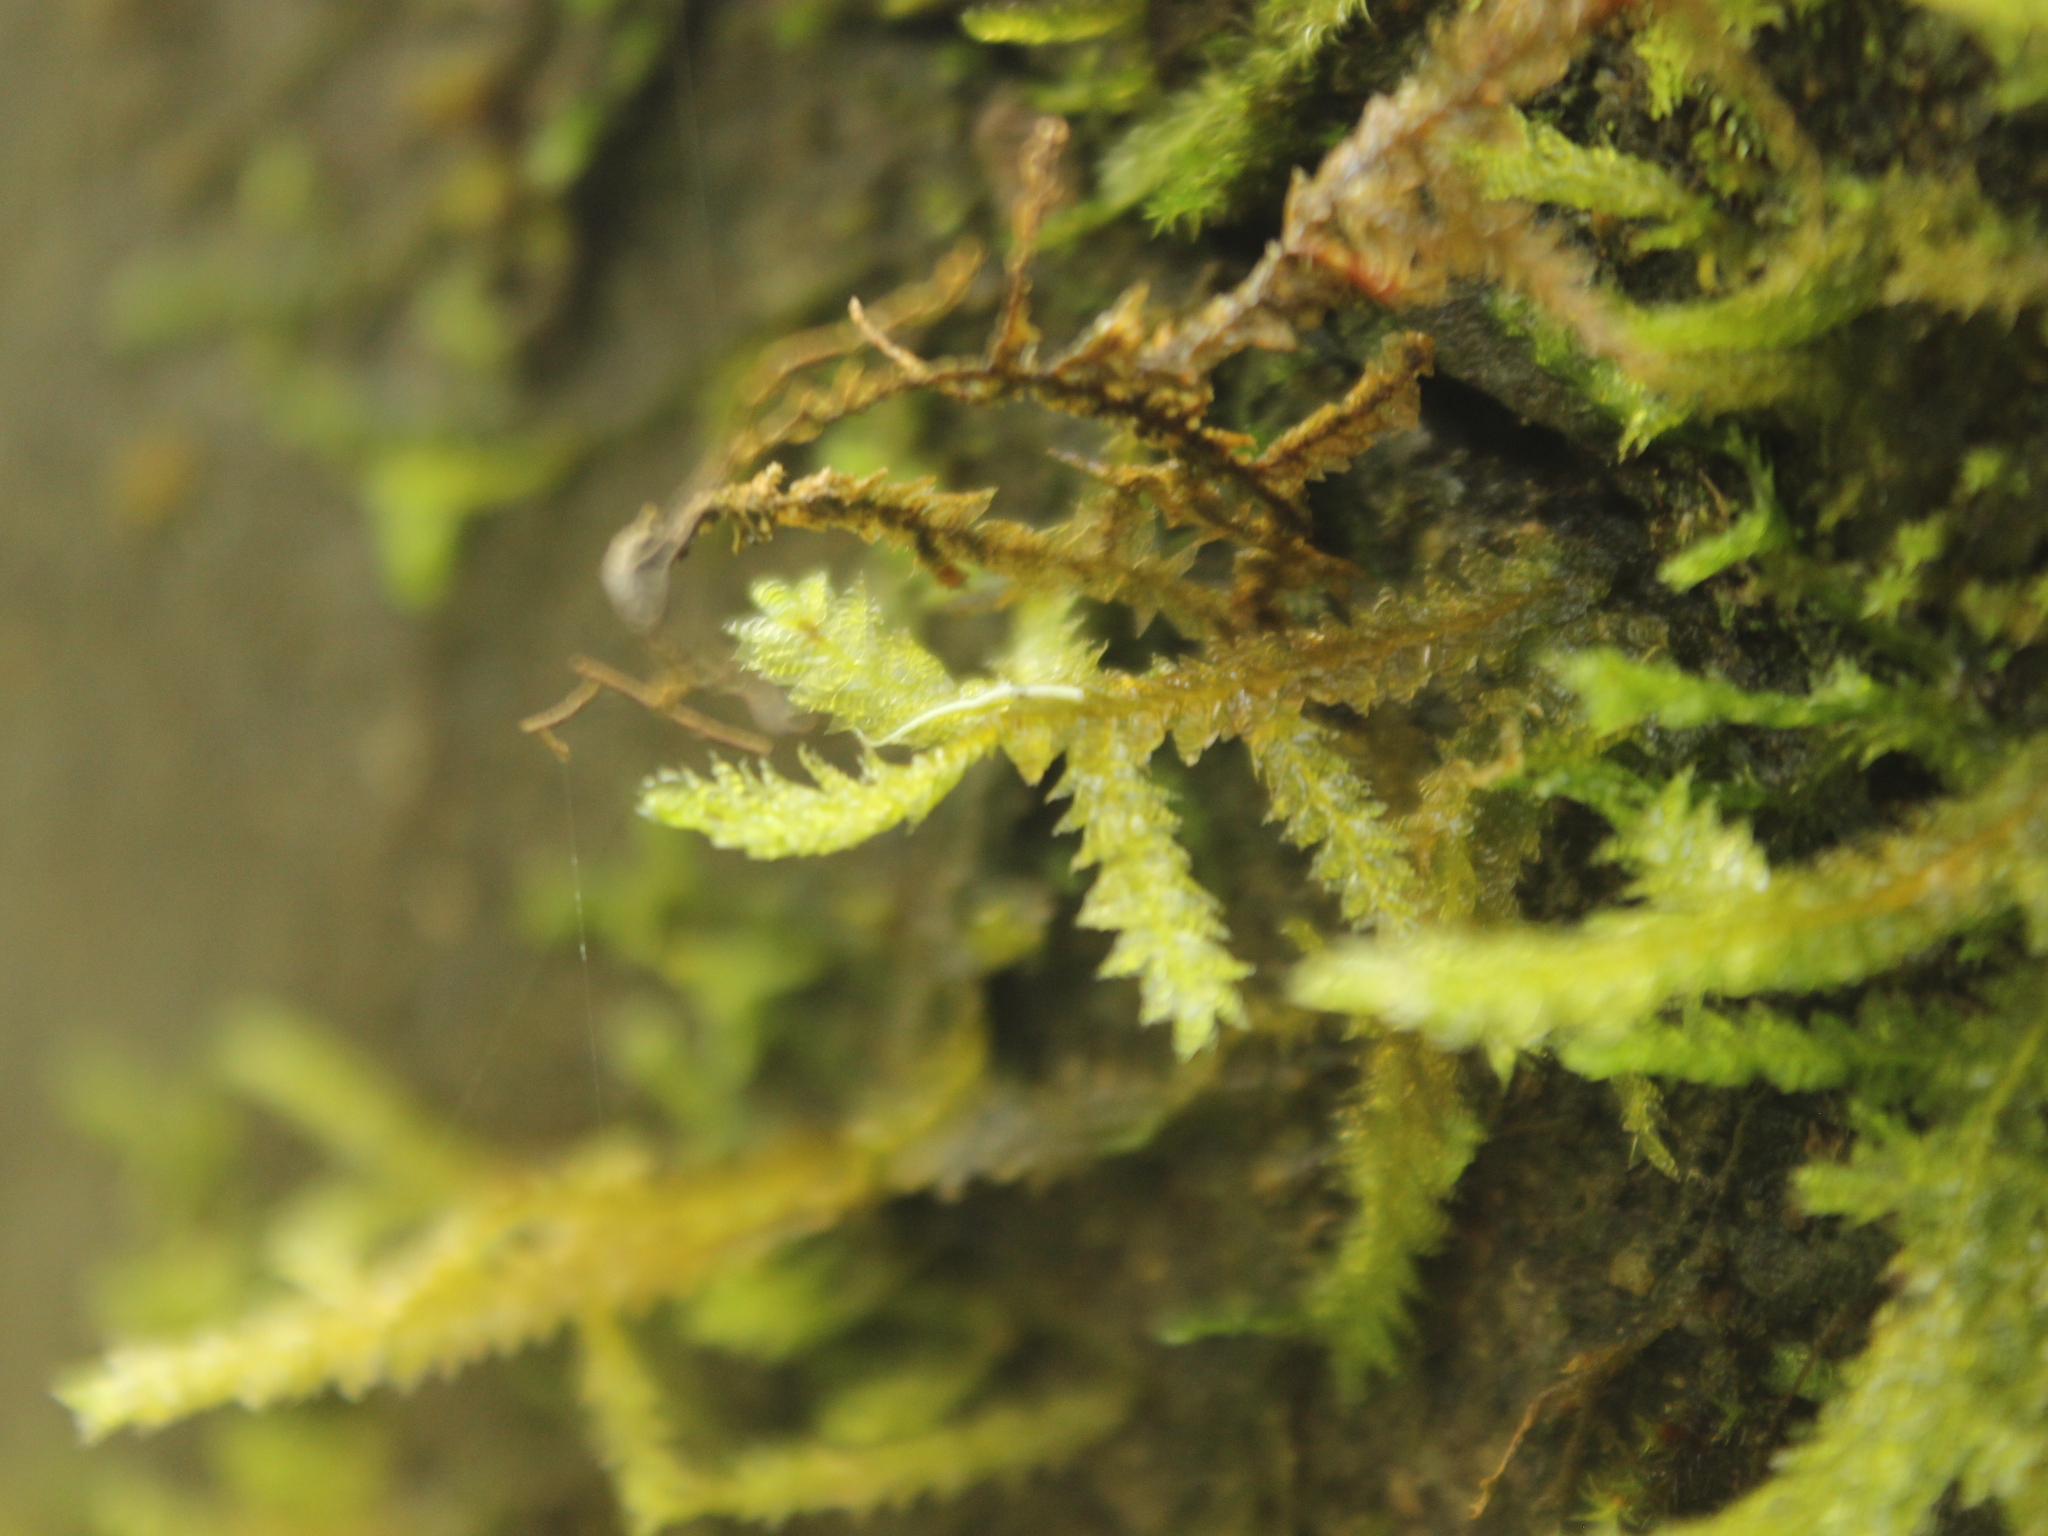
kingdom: Plantae
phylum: Bryophyta
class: Bryopsida
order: Hypnales
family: Neckeraceae
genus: Alleniella
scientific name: Alleniella hymenodonta
